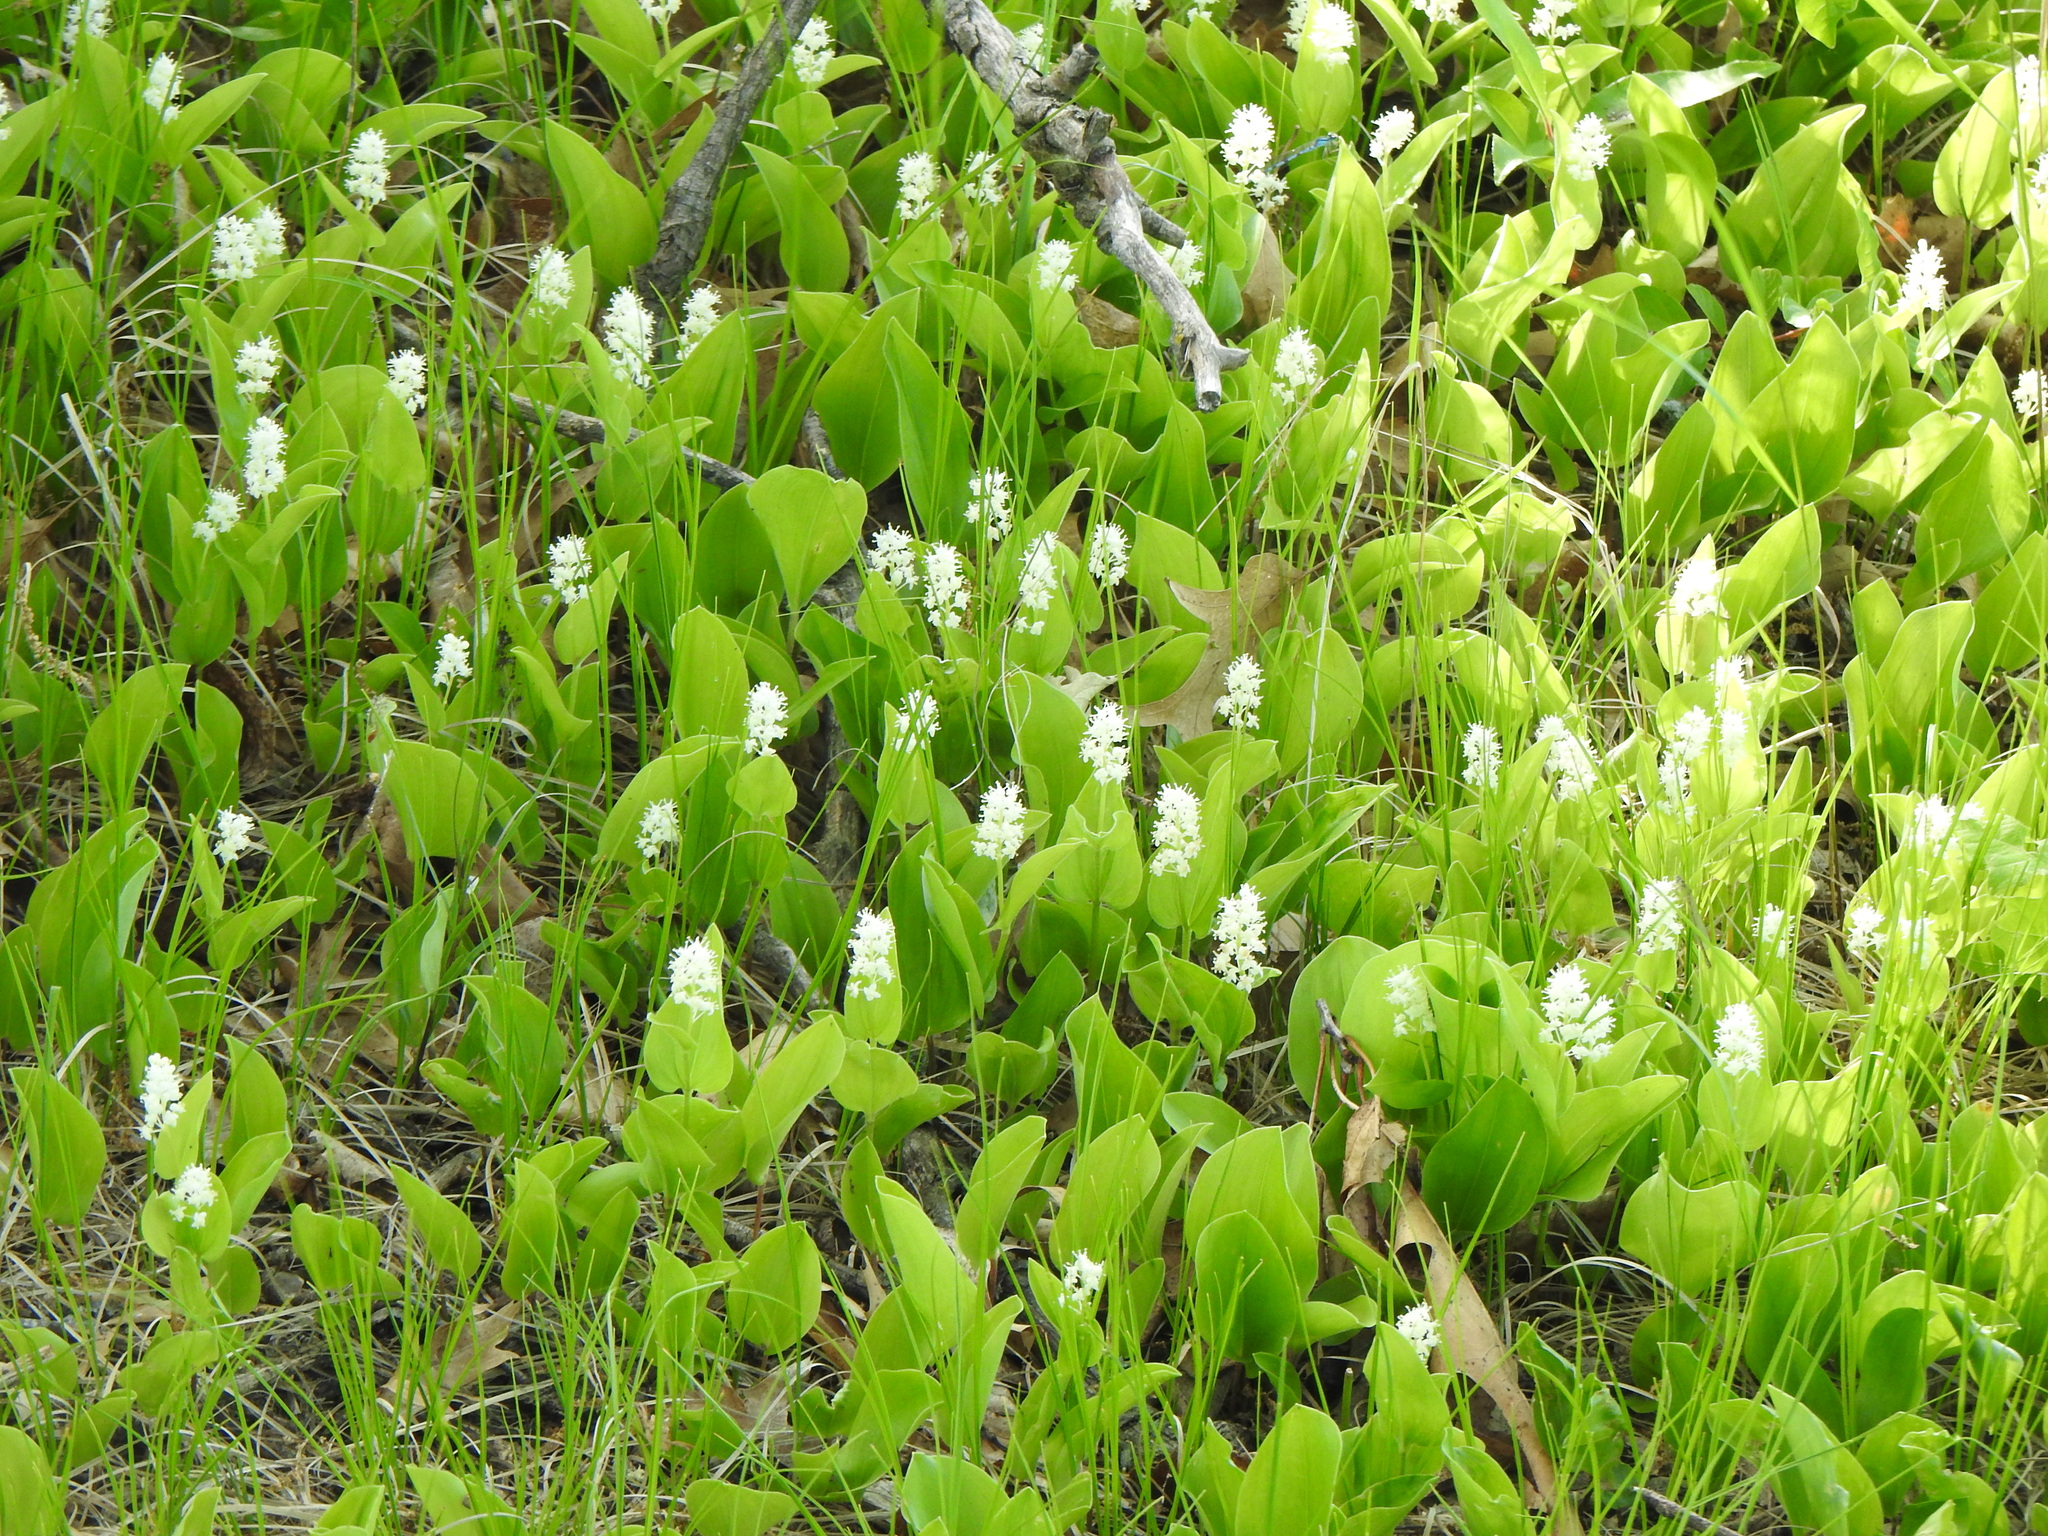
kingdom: Plantae
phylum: Tracheophyta
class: Liliopsida
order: Asparagales
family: Asparagaceae
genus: Maianthemum
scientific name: Maianthemum canadense
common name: False lily-of-the-valley
